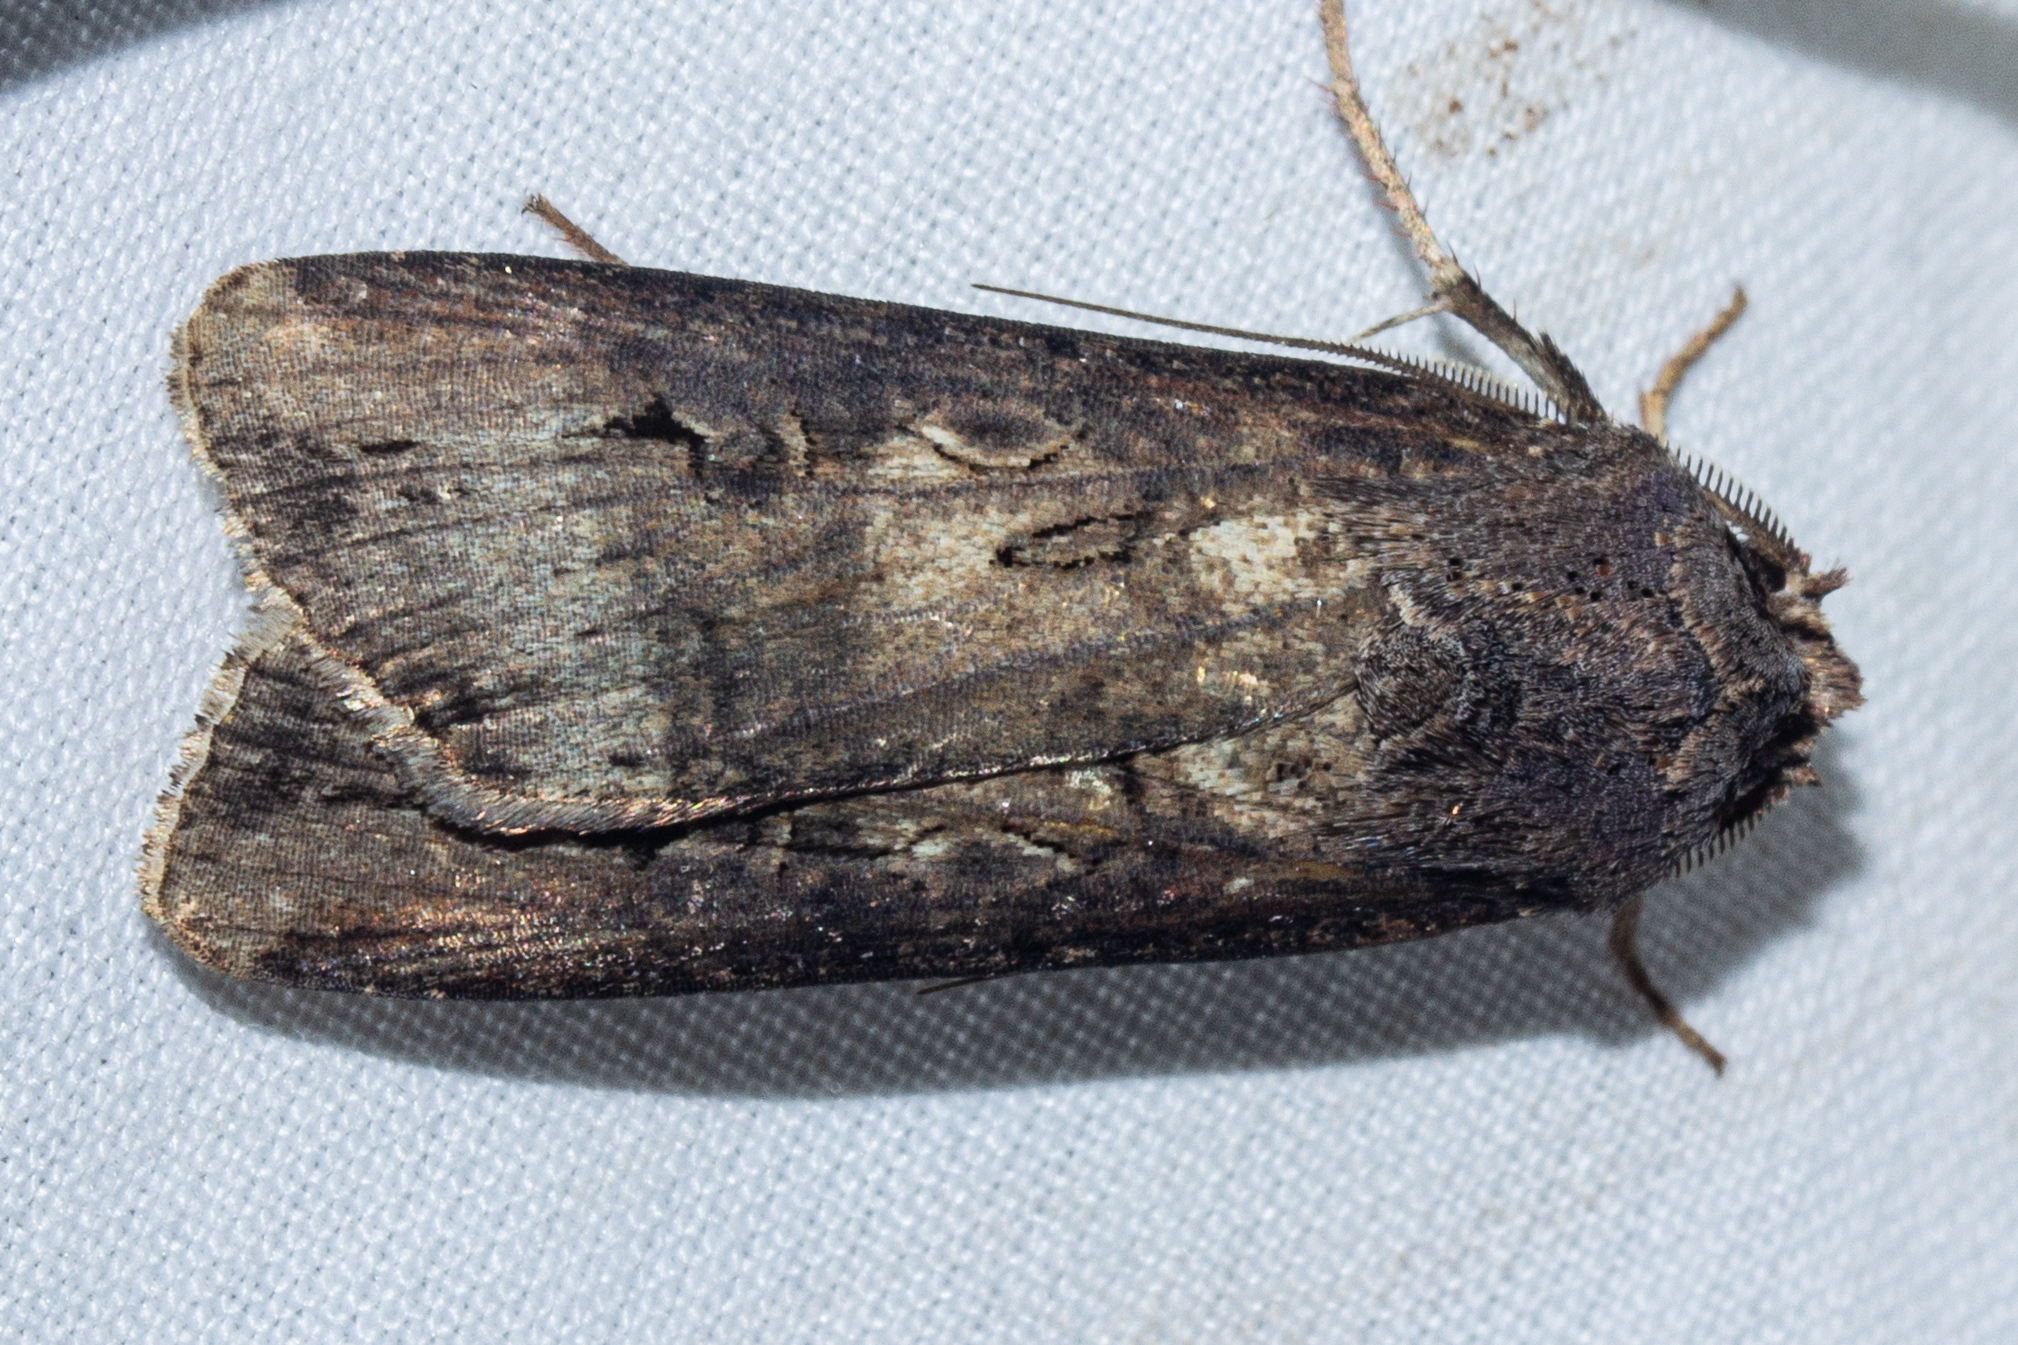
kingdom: Animalia
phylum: Arthropoda
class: Insecta
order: Lepidoptera
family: Noctuidae
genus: Agrotis
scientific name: Agrotis ipsilon
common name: Dark sword-grass
